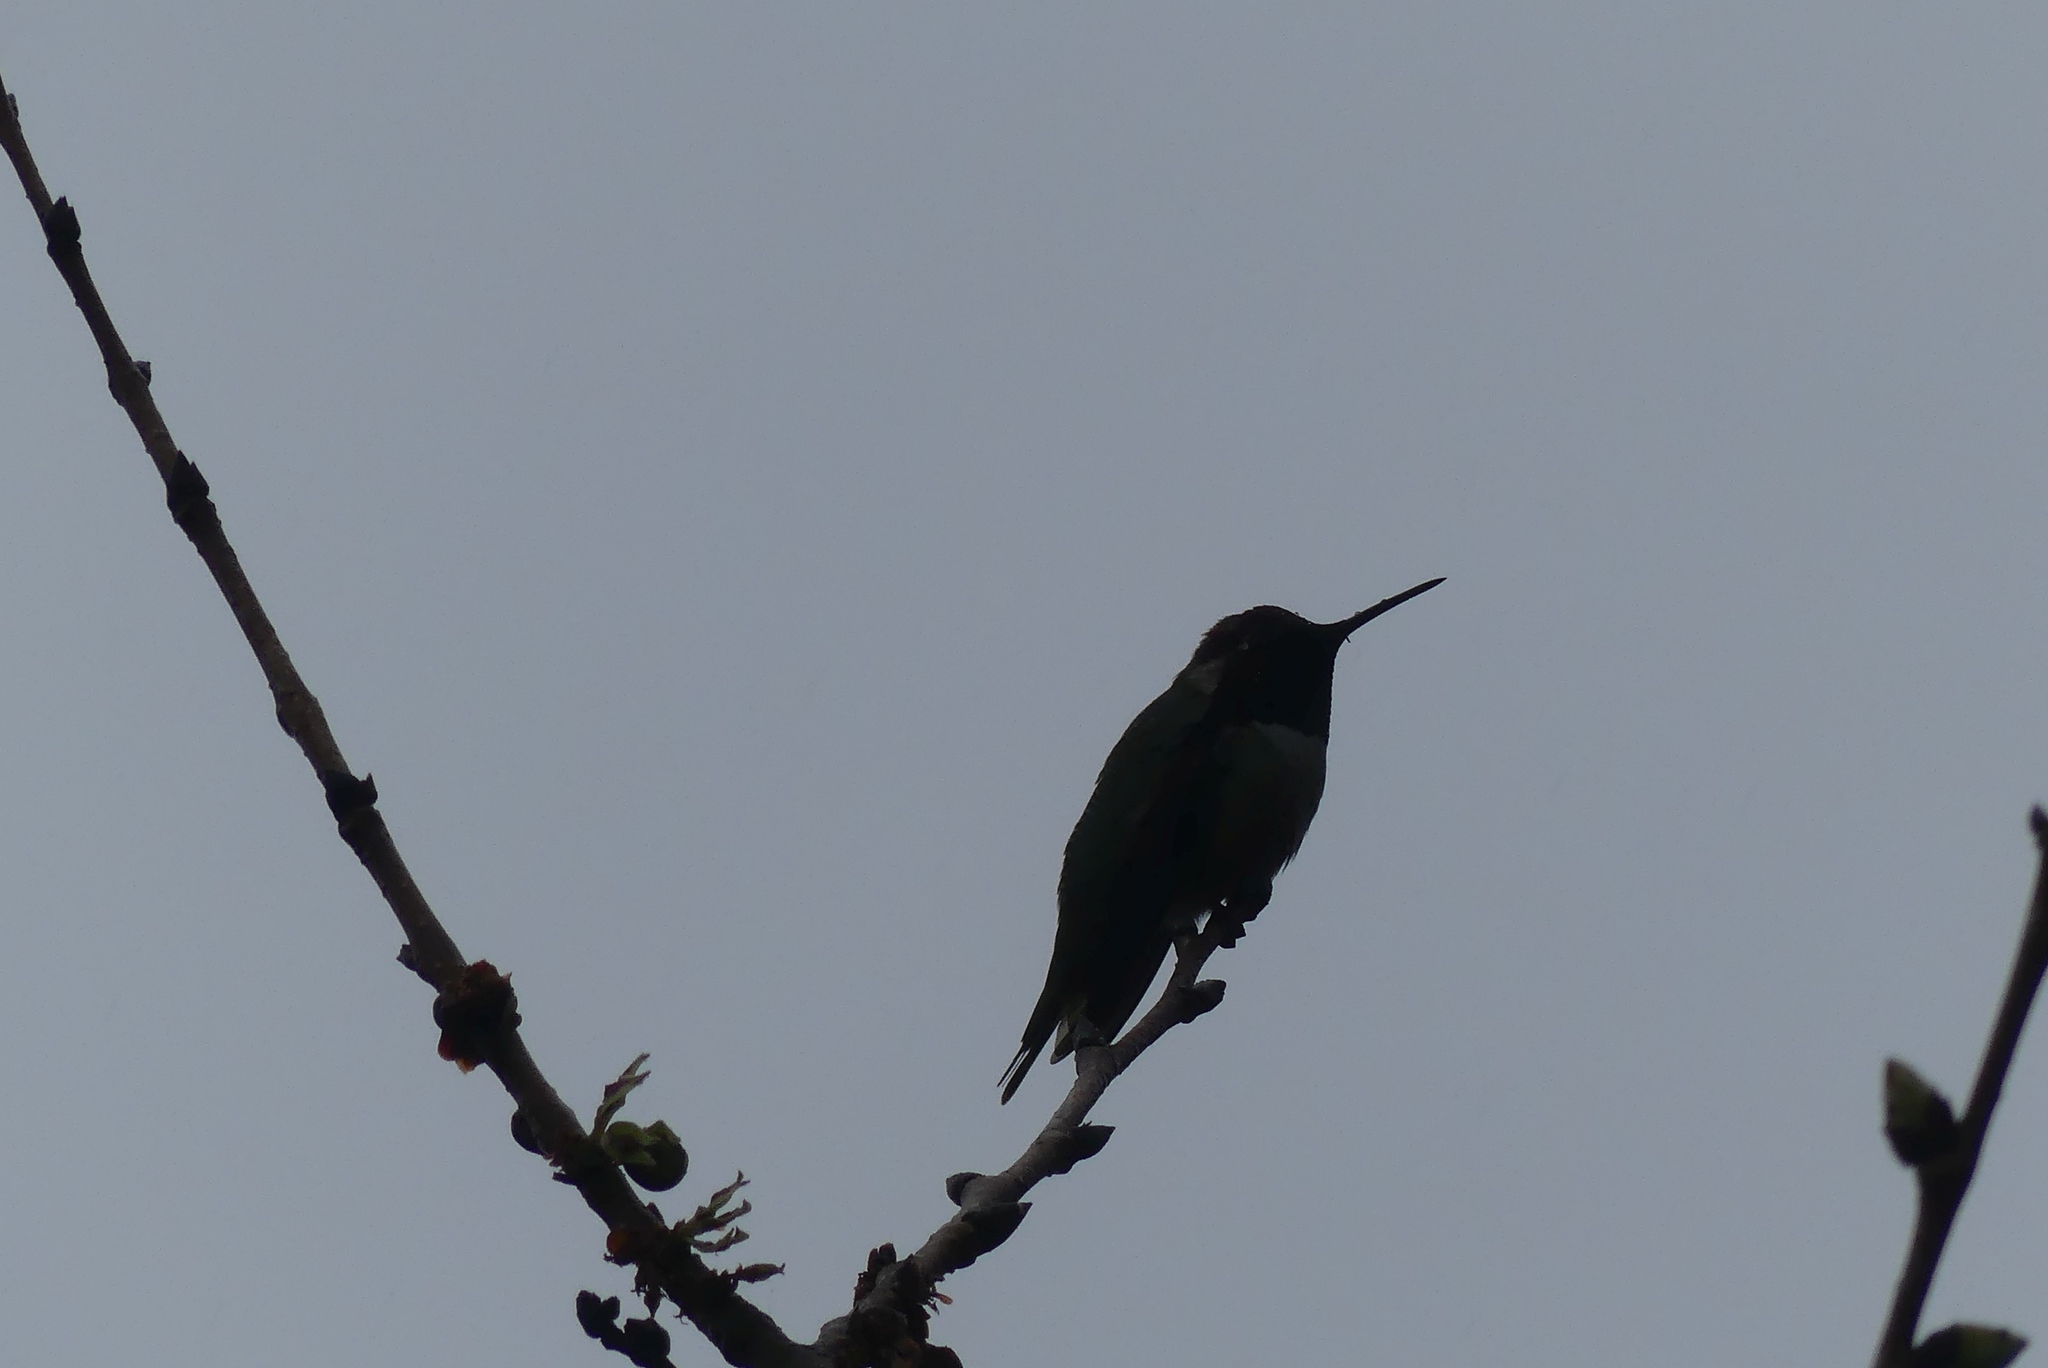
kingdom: Animalia
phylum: Chordata
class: Aves
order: Apodiformes
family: Trochilidae
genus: Calypte
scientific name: Calypte anna
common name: Anna's hummingbird
